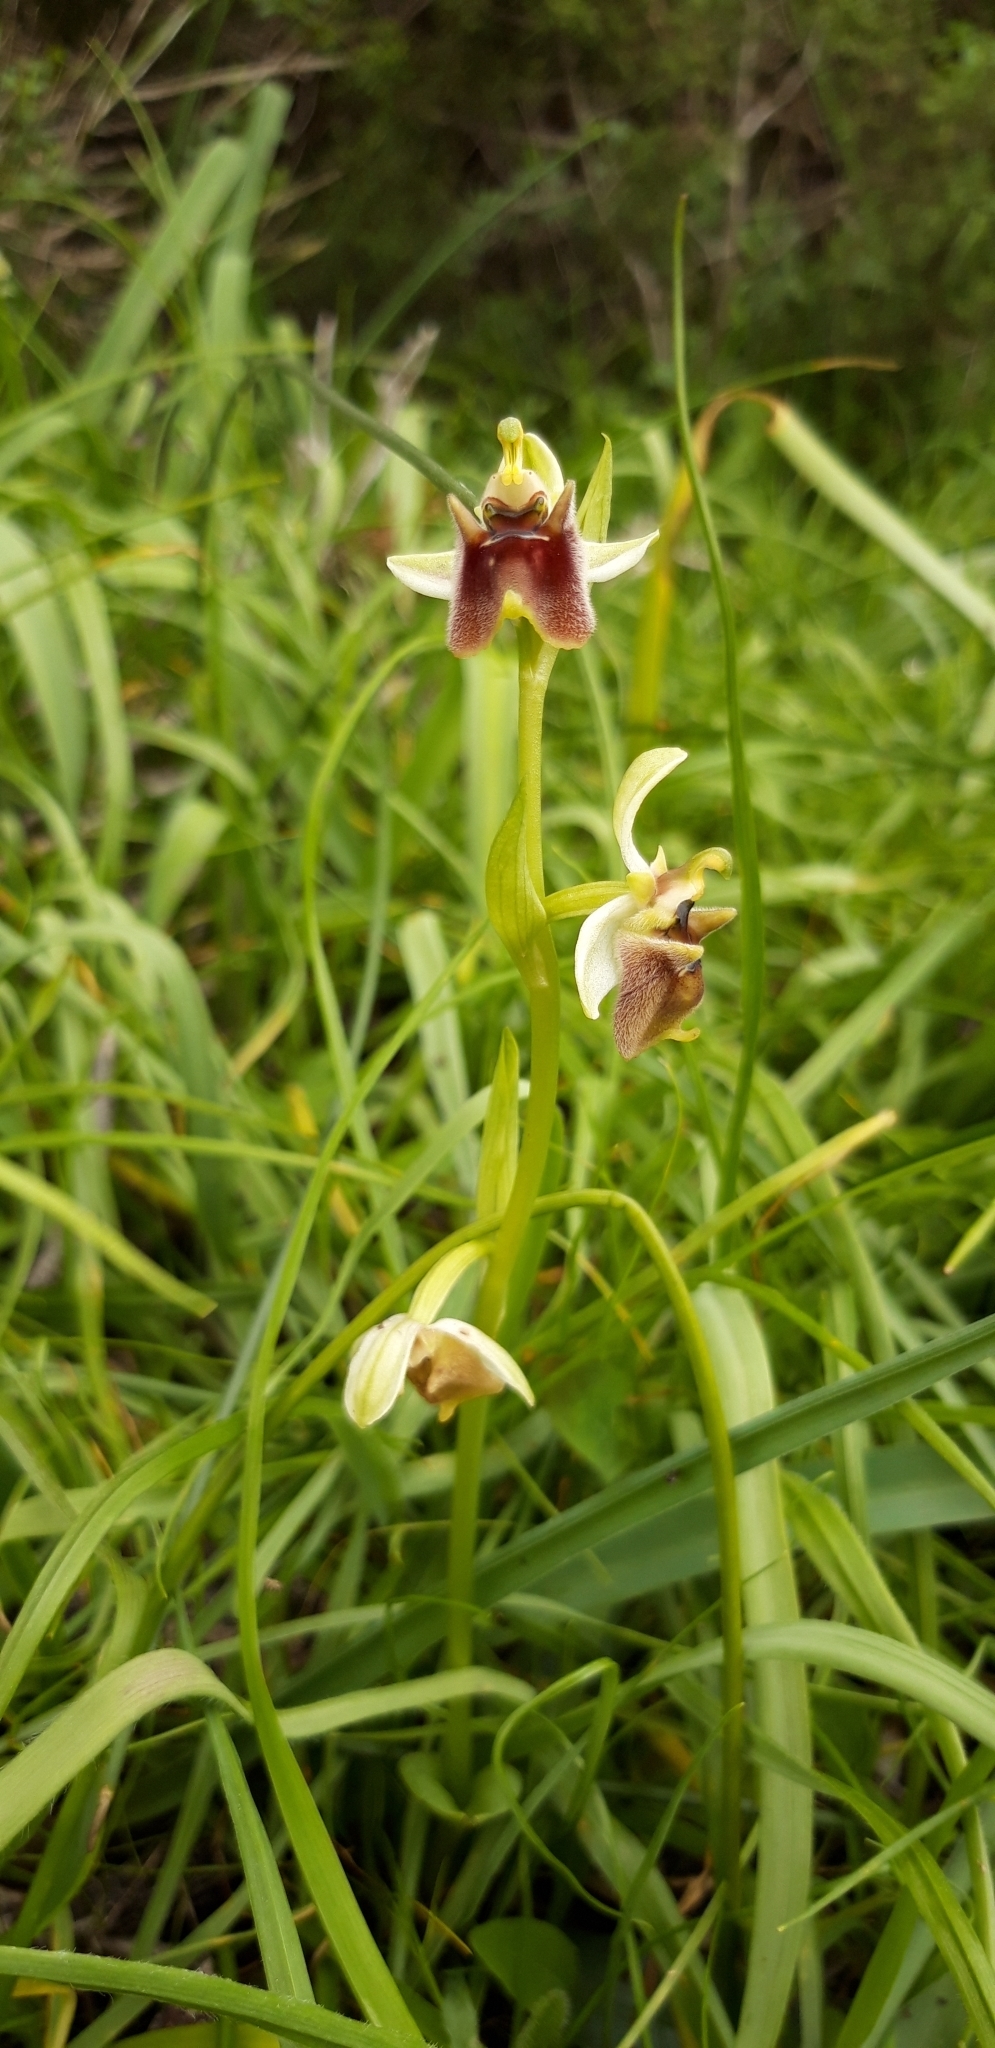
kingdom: Plantae
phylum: Tracheophyta
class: Liliopsida
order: Asparagales
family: Orchidaceae
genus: Ophrys
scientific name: Ophrys bornmuelleri
